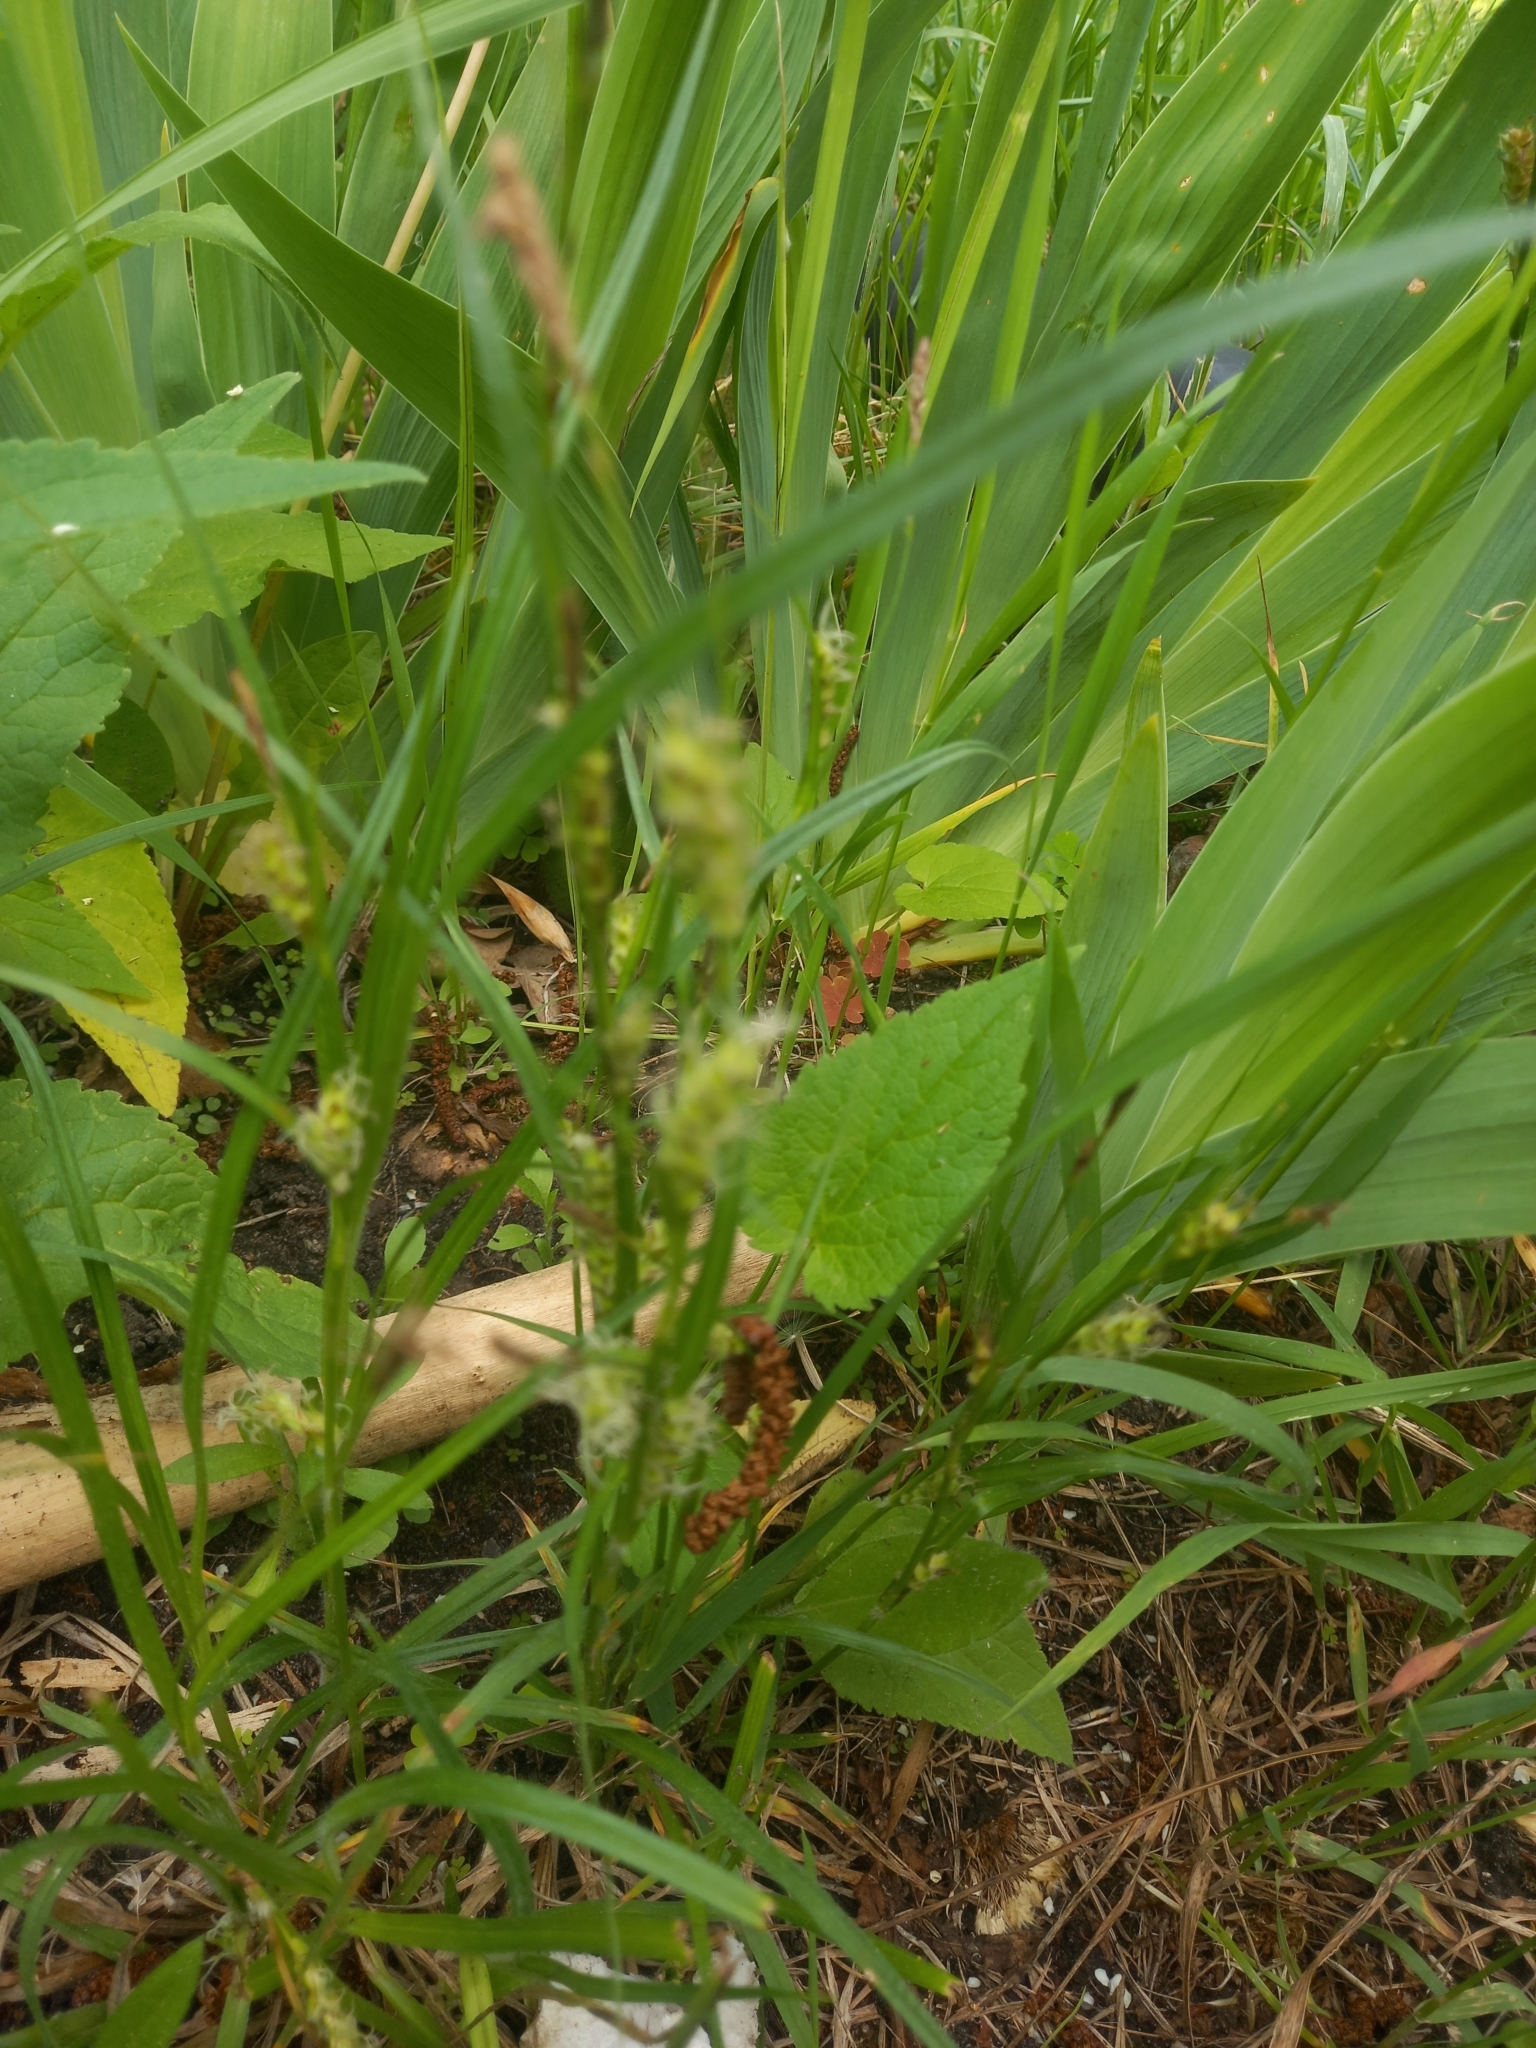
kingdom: Plantae
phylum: Tracheophyta
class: Liliopsida
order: Poales
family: Cyperaceae
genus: Carex
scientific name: Carex hirta
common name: Hairy sedge
